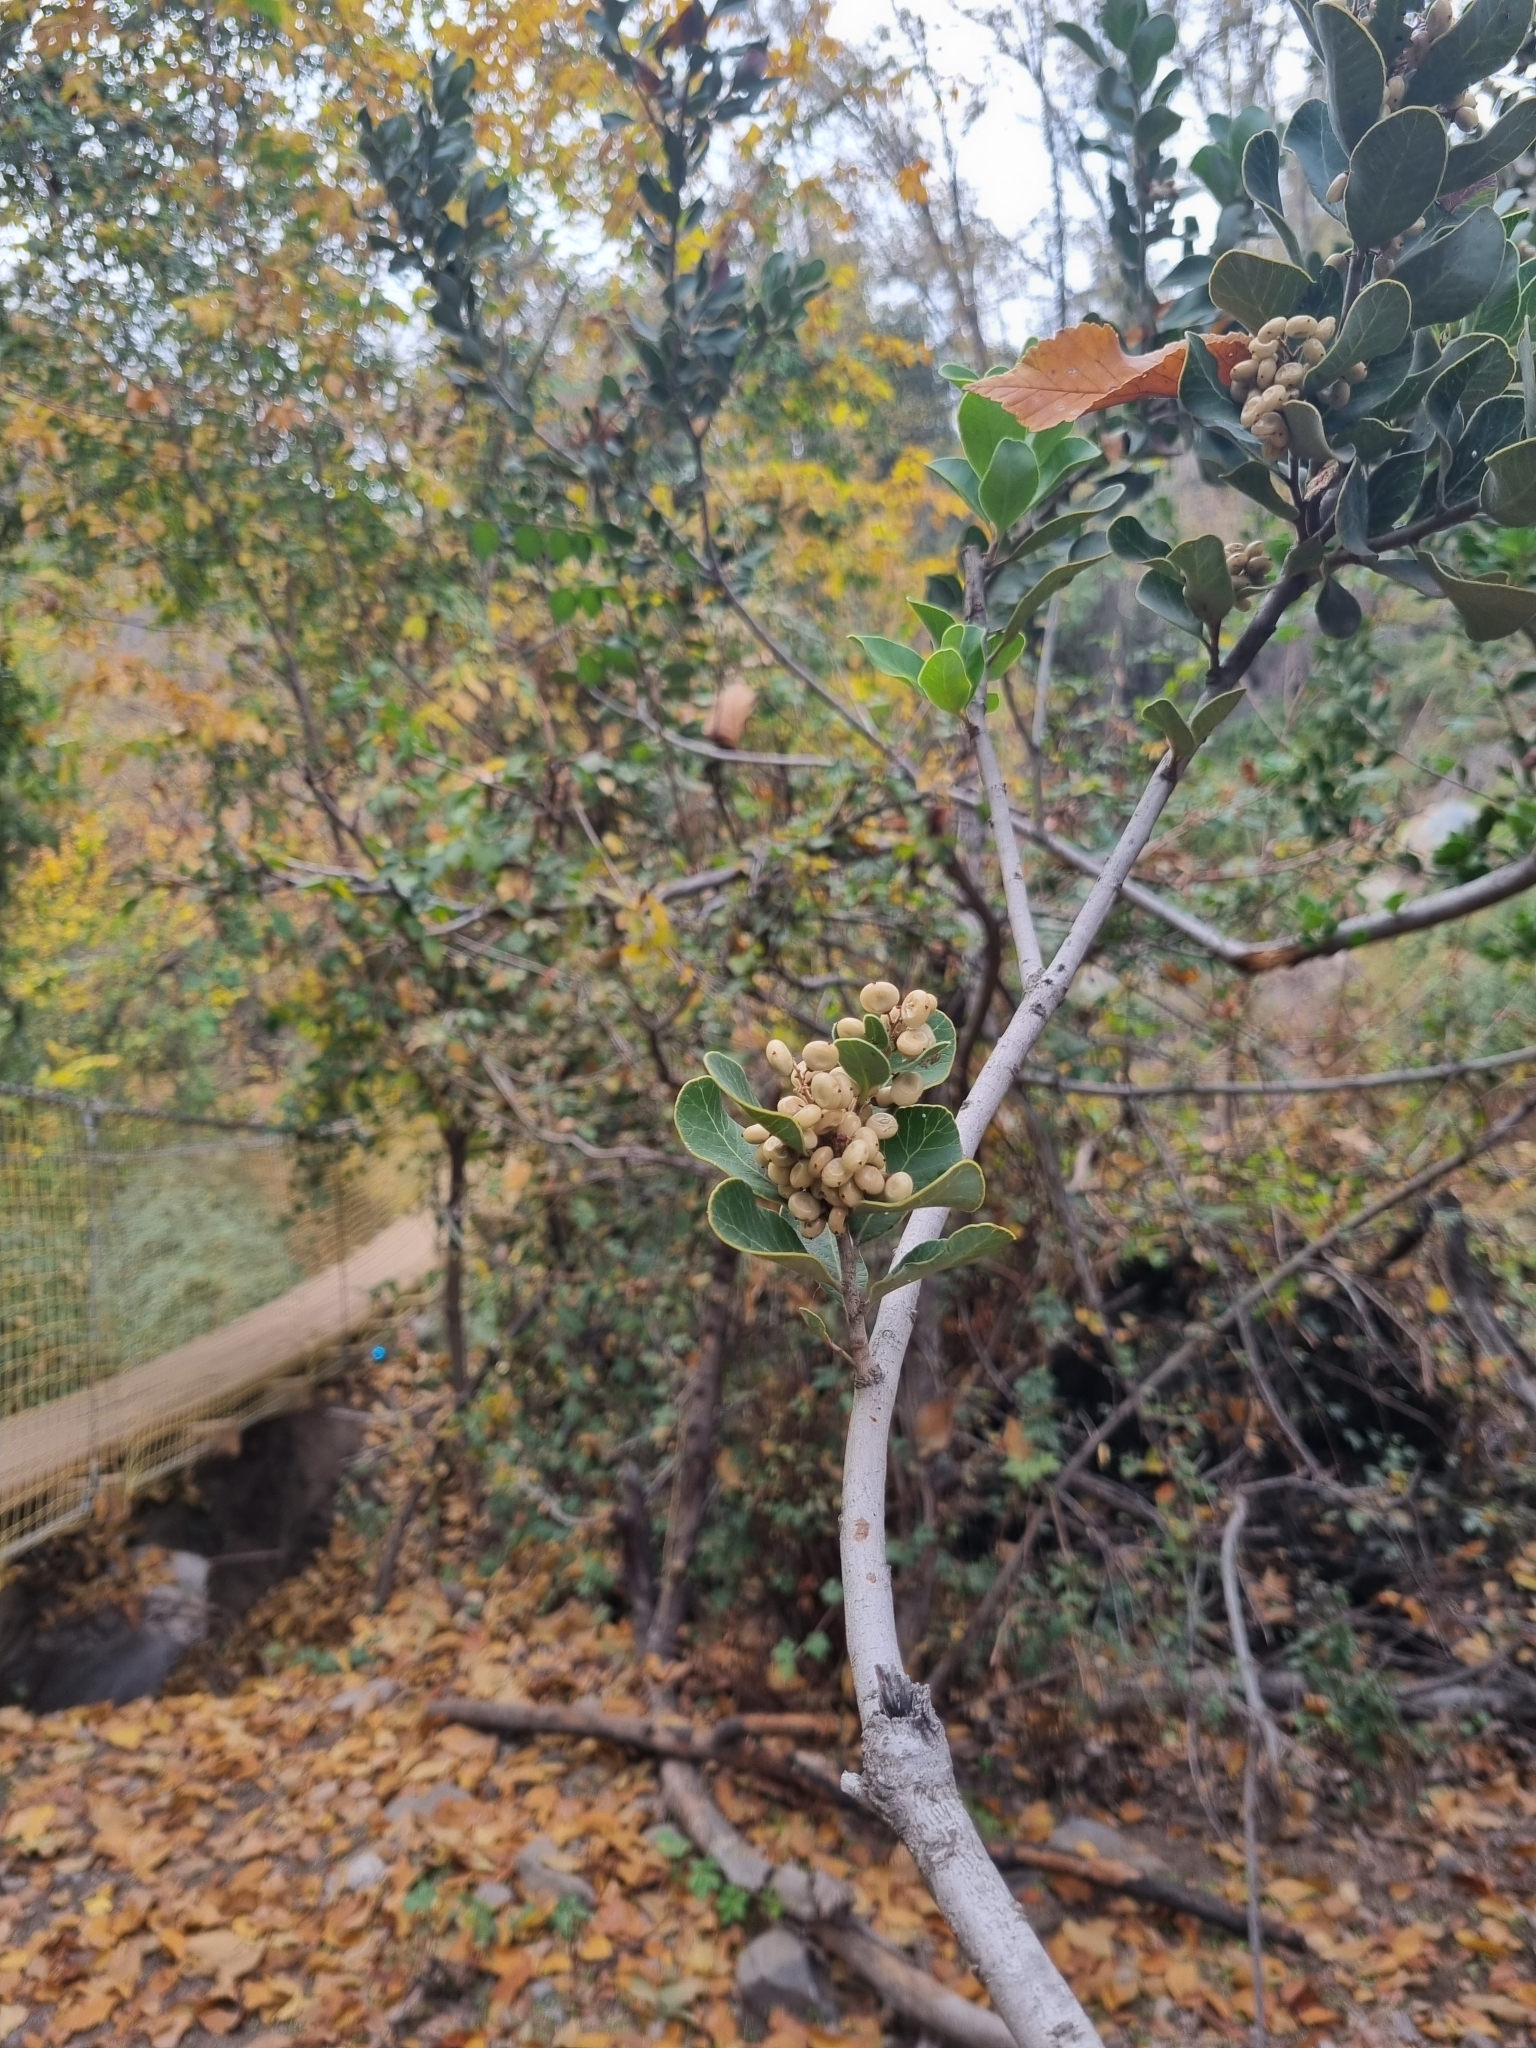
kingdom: Plantae
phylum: Tracheophyta
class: Magnoliopsida
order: Sapindales
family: Anacardiaceae
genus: Lithraea
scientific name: Lithraea caustica
